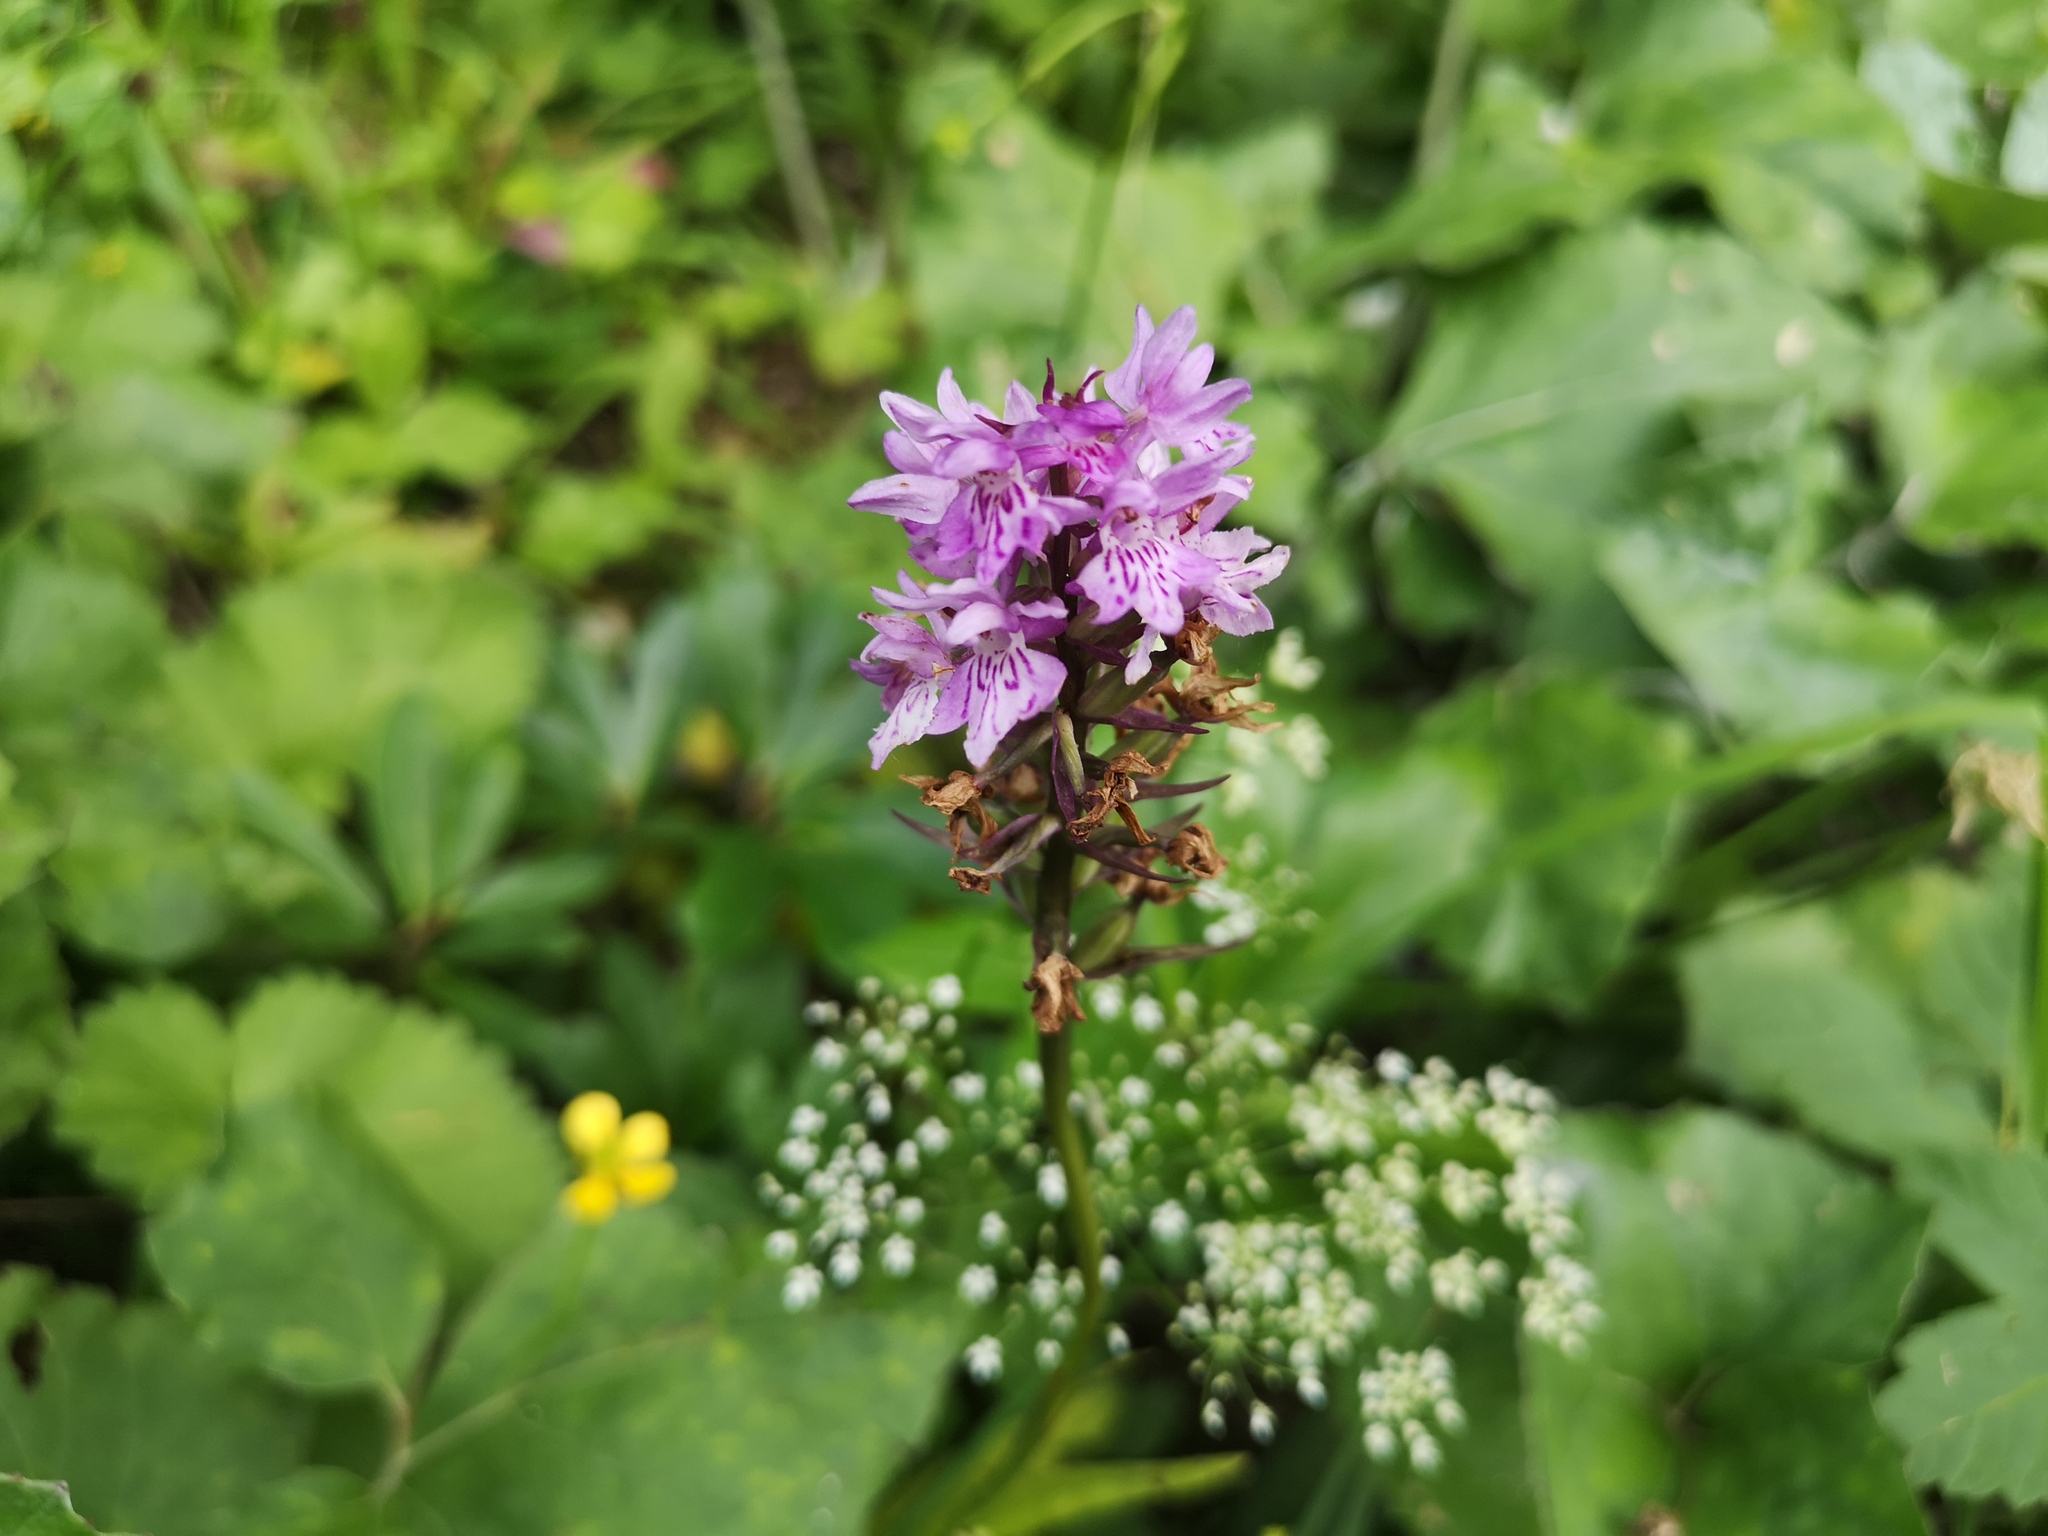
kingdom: Plantae
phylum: Tracheophyta
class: Liliopsida
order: Asparagales
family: Orchidaceae
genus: Dactylorhiza
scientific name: Dactylorhiza maculata
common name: Heath spotted-orchid
